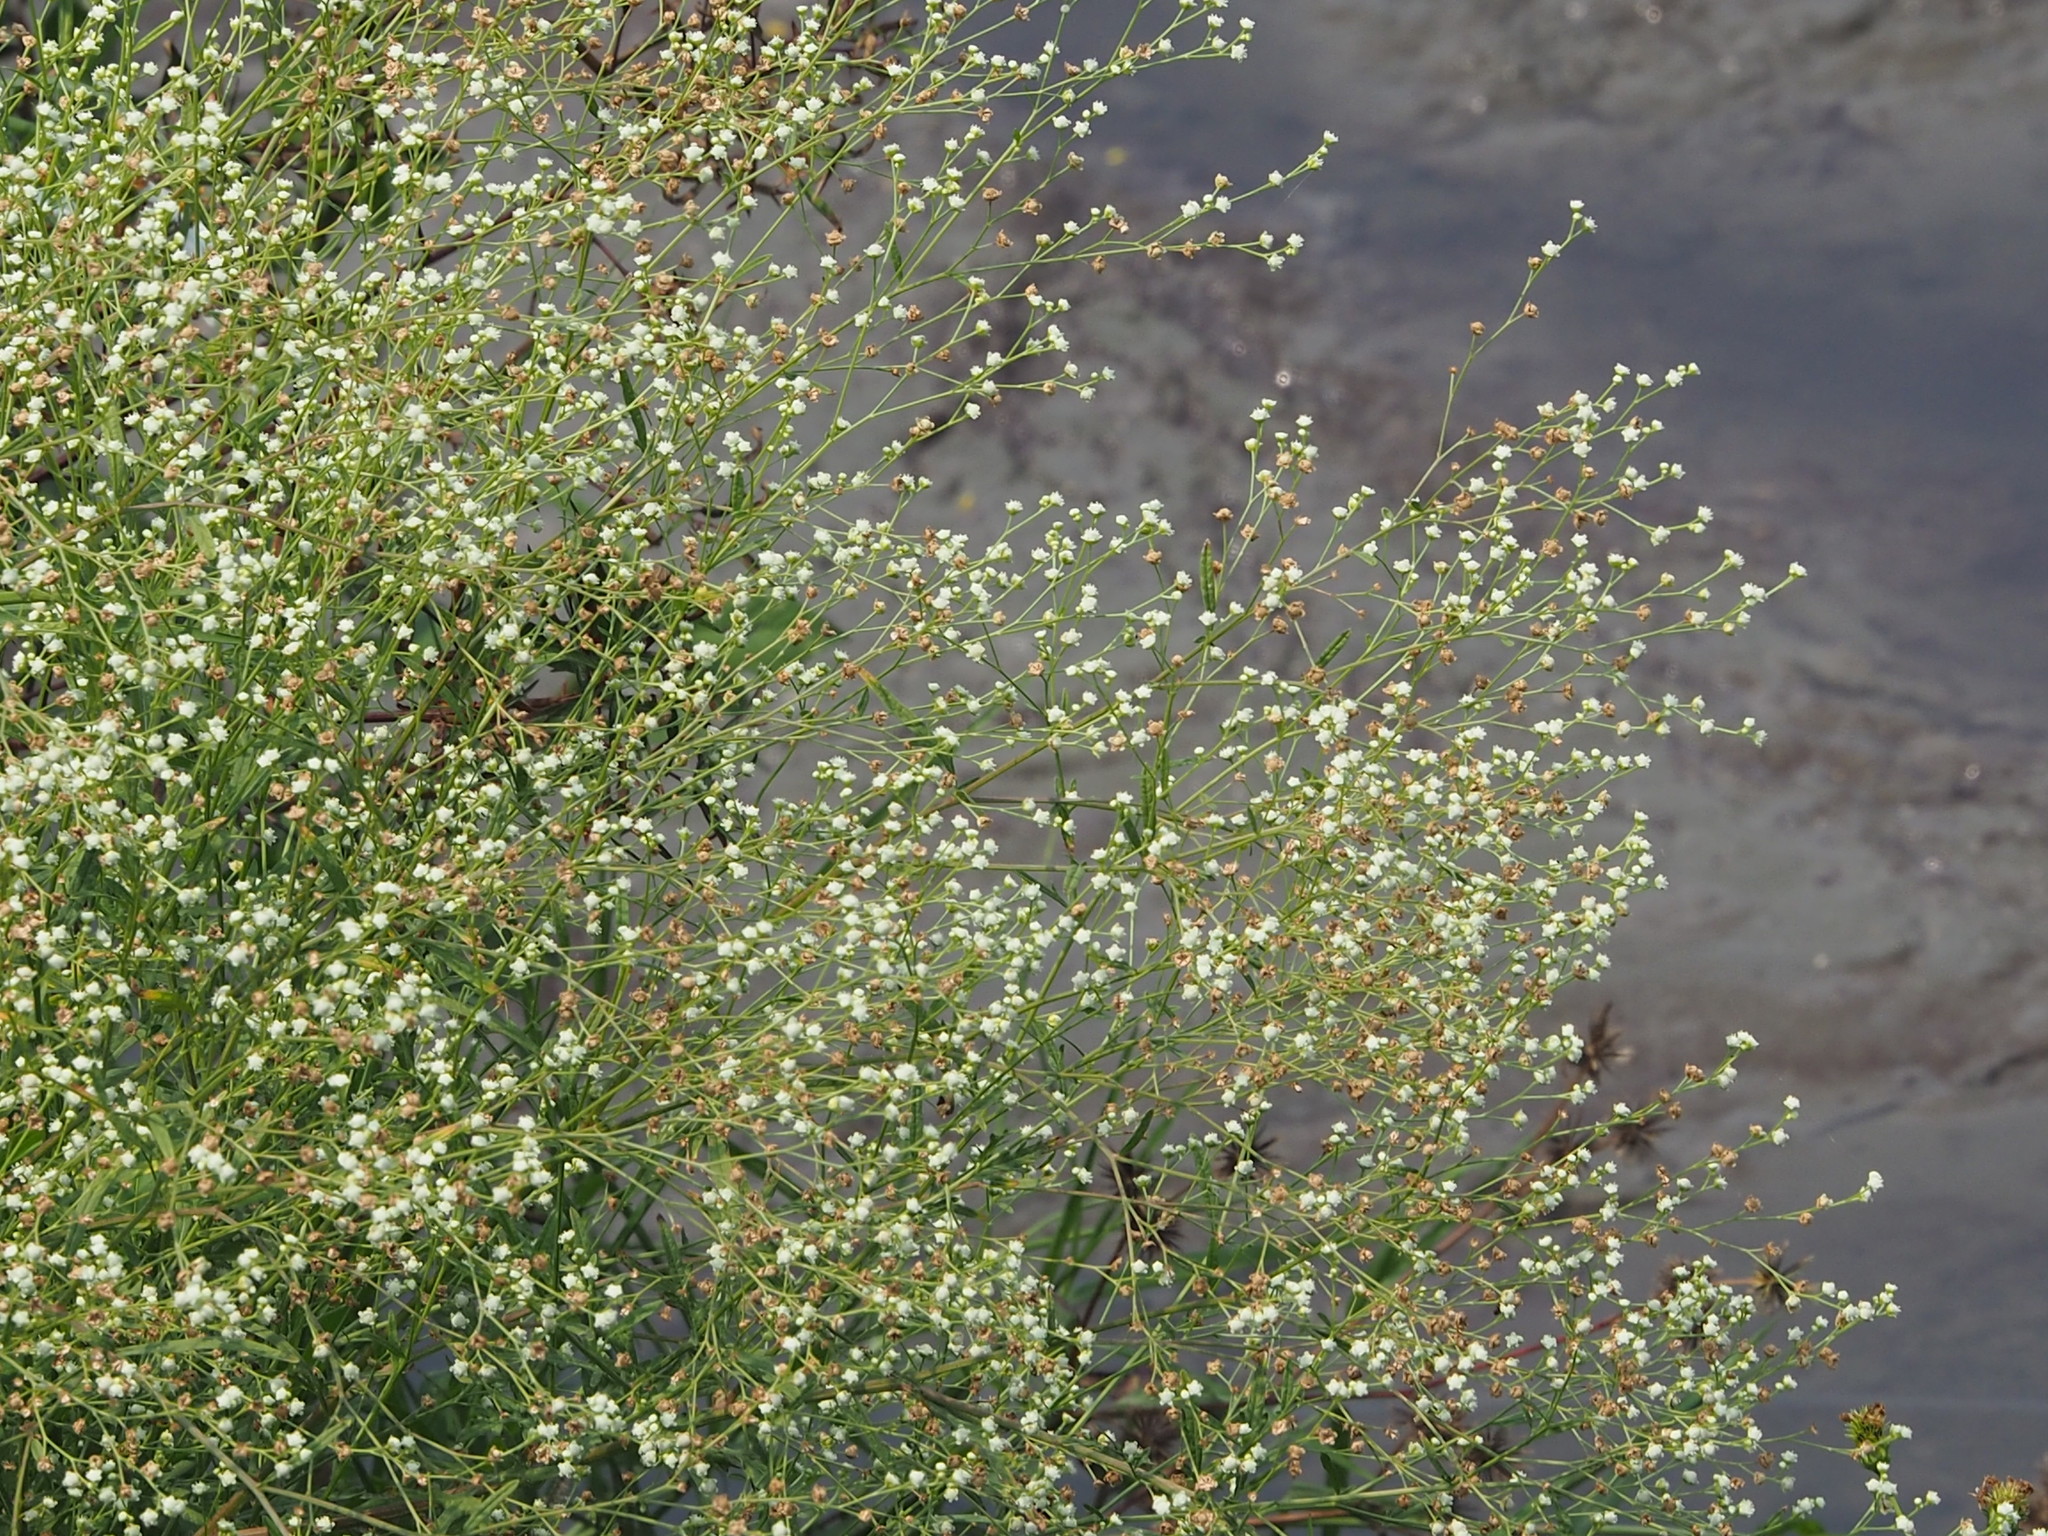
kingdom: Plantae
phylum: Tracheophyta
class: Magnoliopsida
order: Asterales
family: Asteraceae
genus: Parthenium
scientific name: Parthenium hysterophorus
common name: Santa maria feverfew
